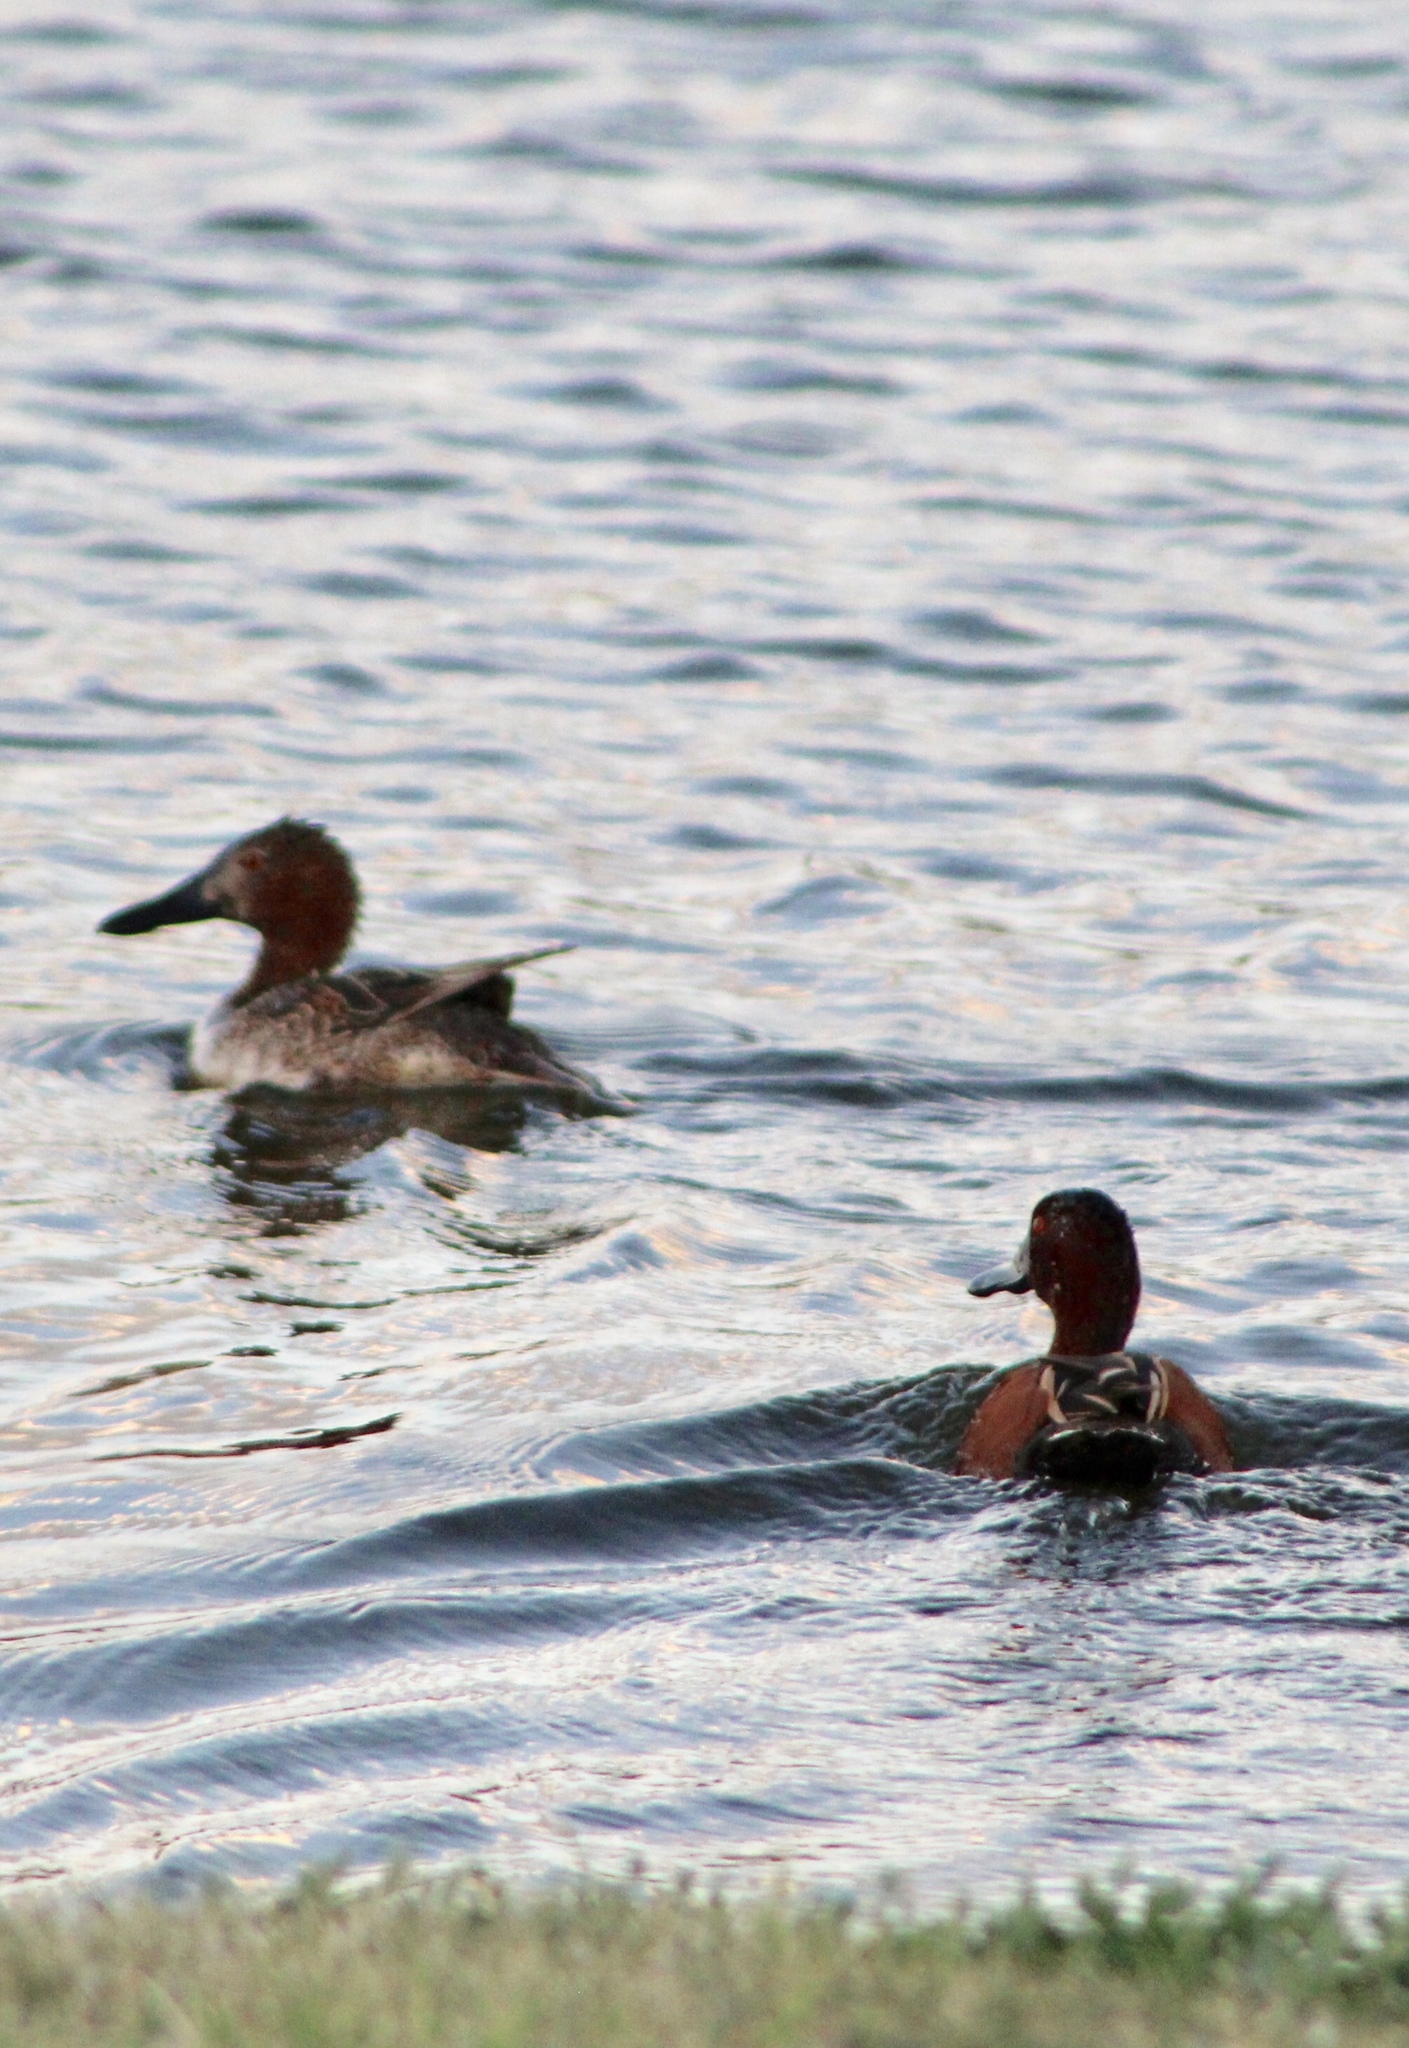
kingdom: Animalia
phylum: Chordata
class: Aves
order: Anseriformes
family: Anatidae
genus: Spatula
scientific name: Spatula cyanoptera
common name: Cinnamon teal
